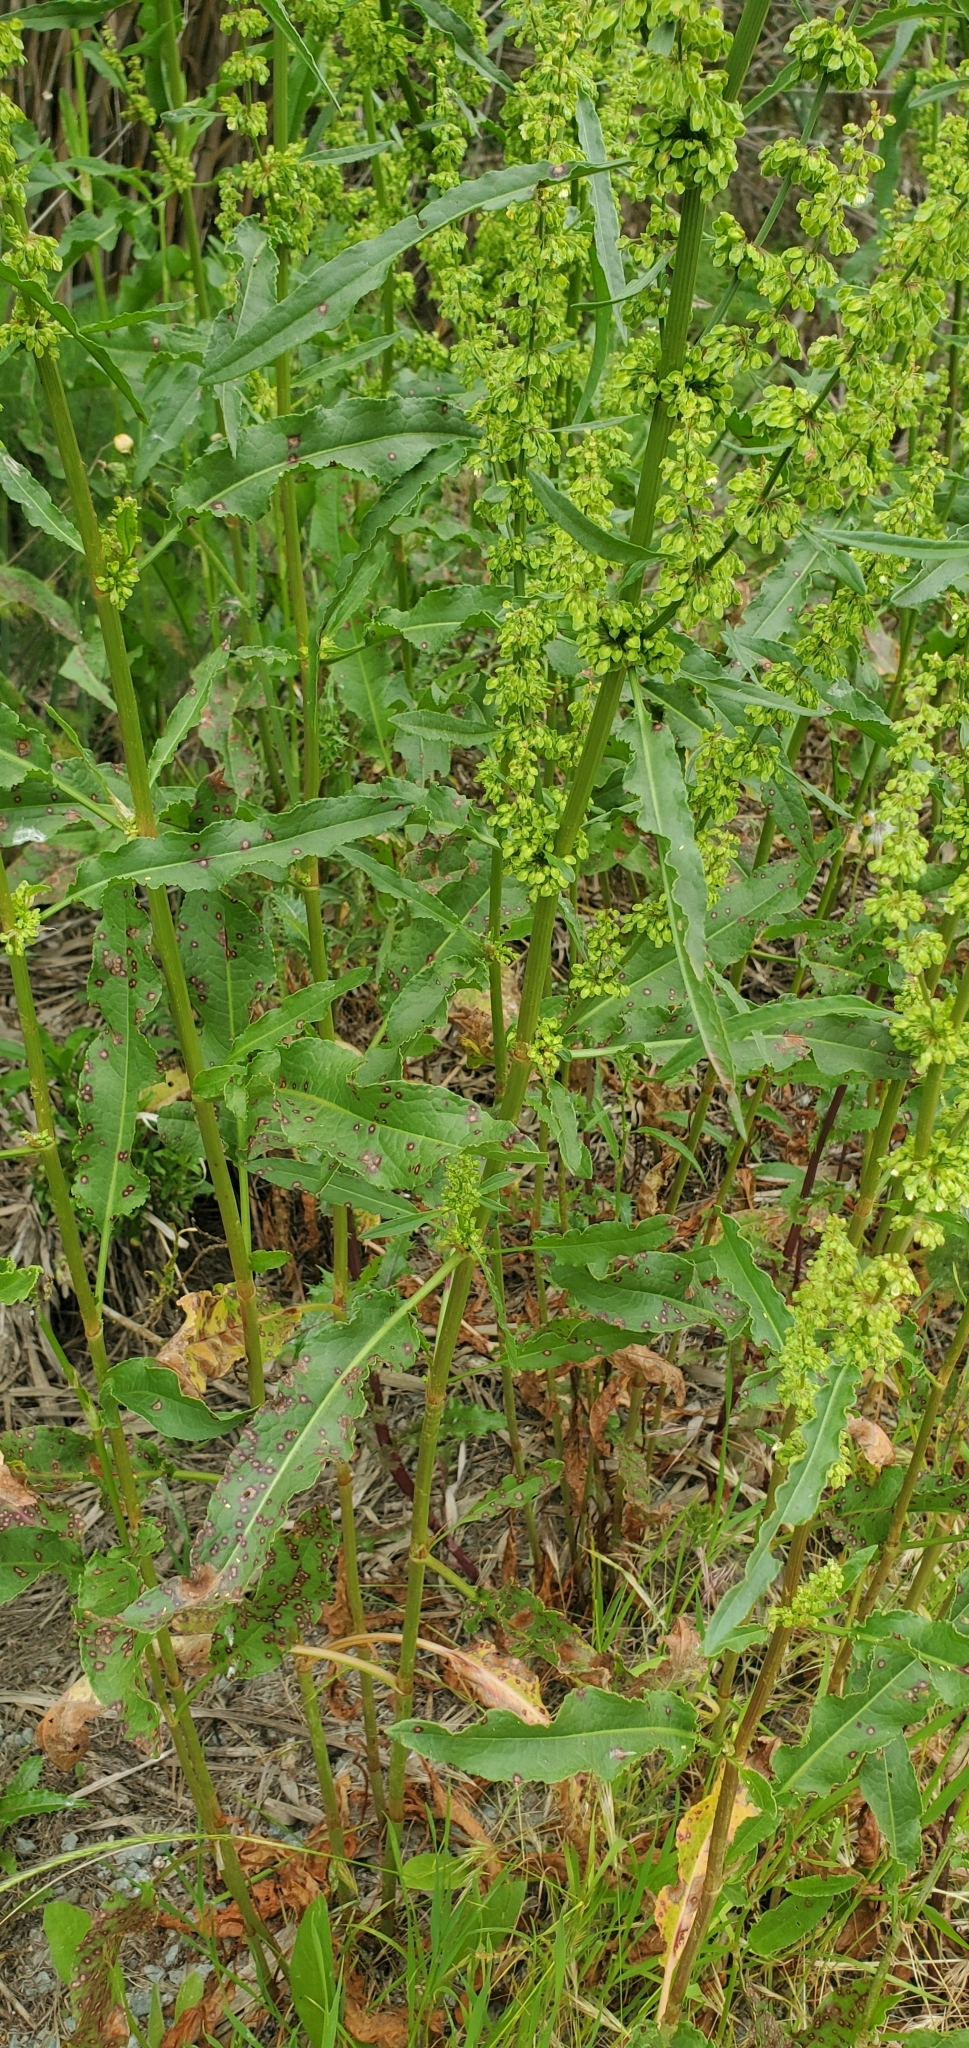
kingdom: Plantae
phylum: Tracheophyta
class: Magnoliopsida
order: Caryophyllales
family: Polygonaceae
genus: Rumex
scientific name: Rumex crispus
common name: Curled dock
